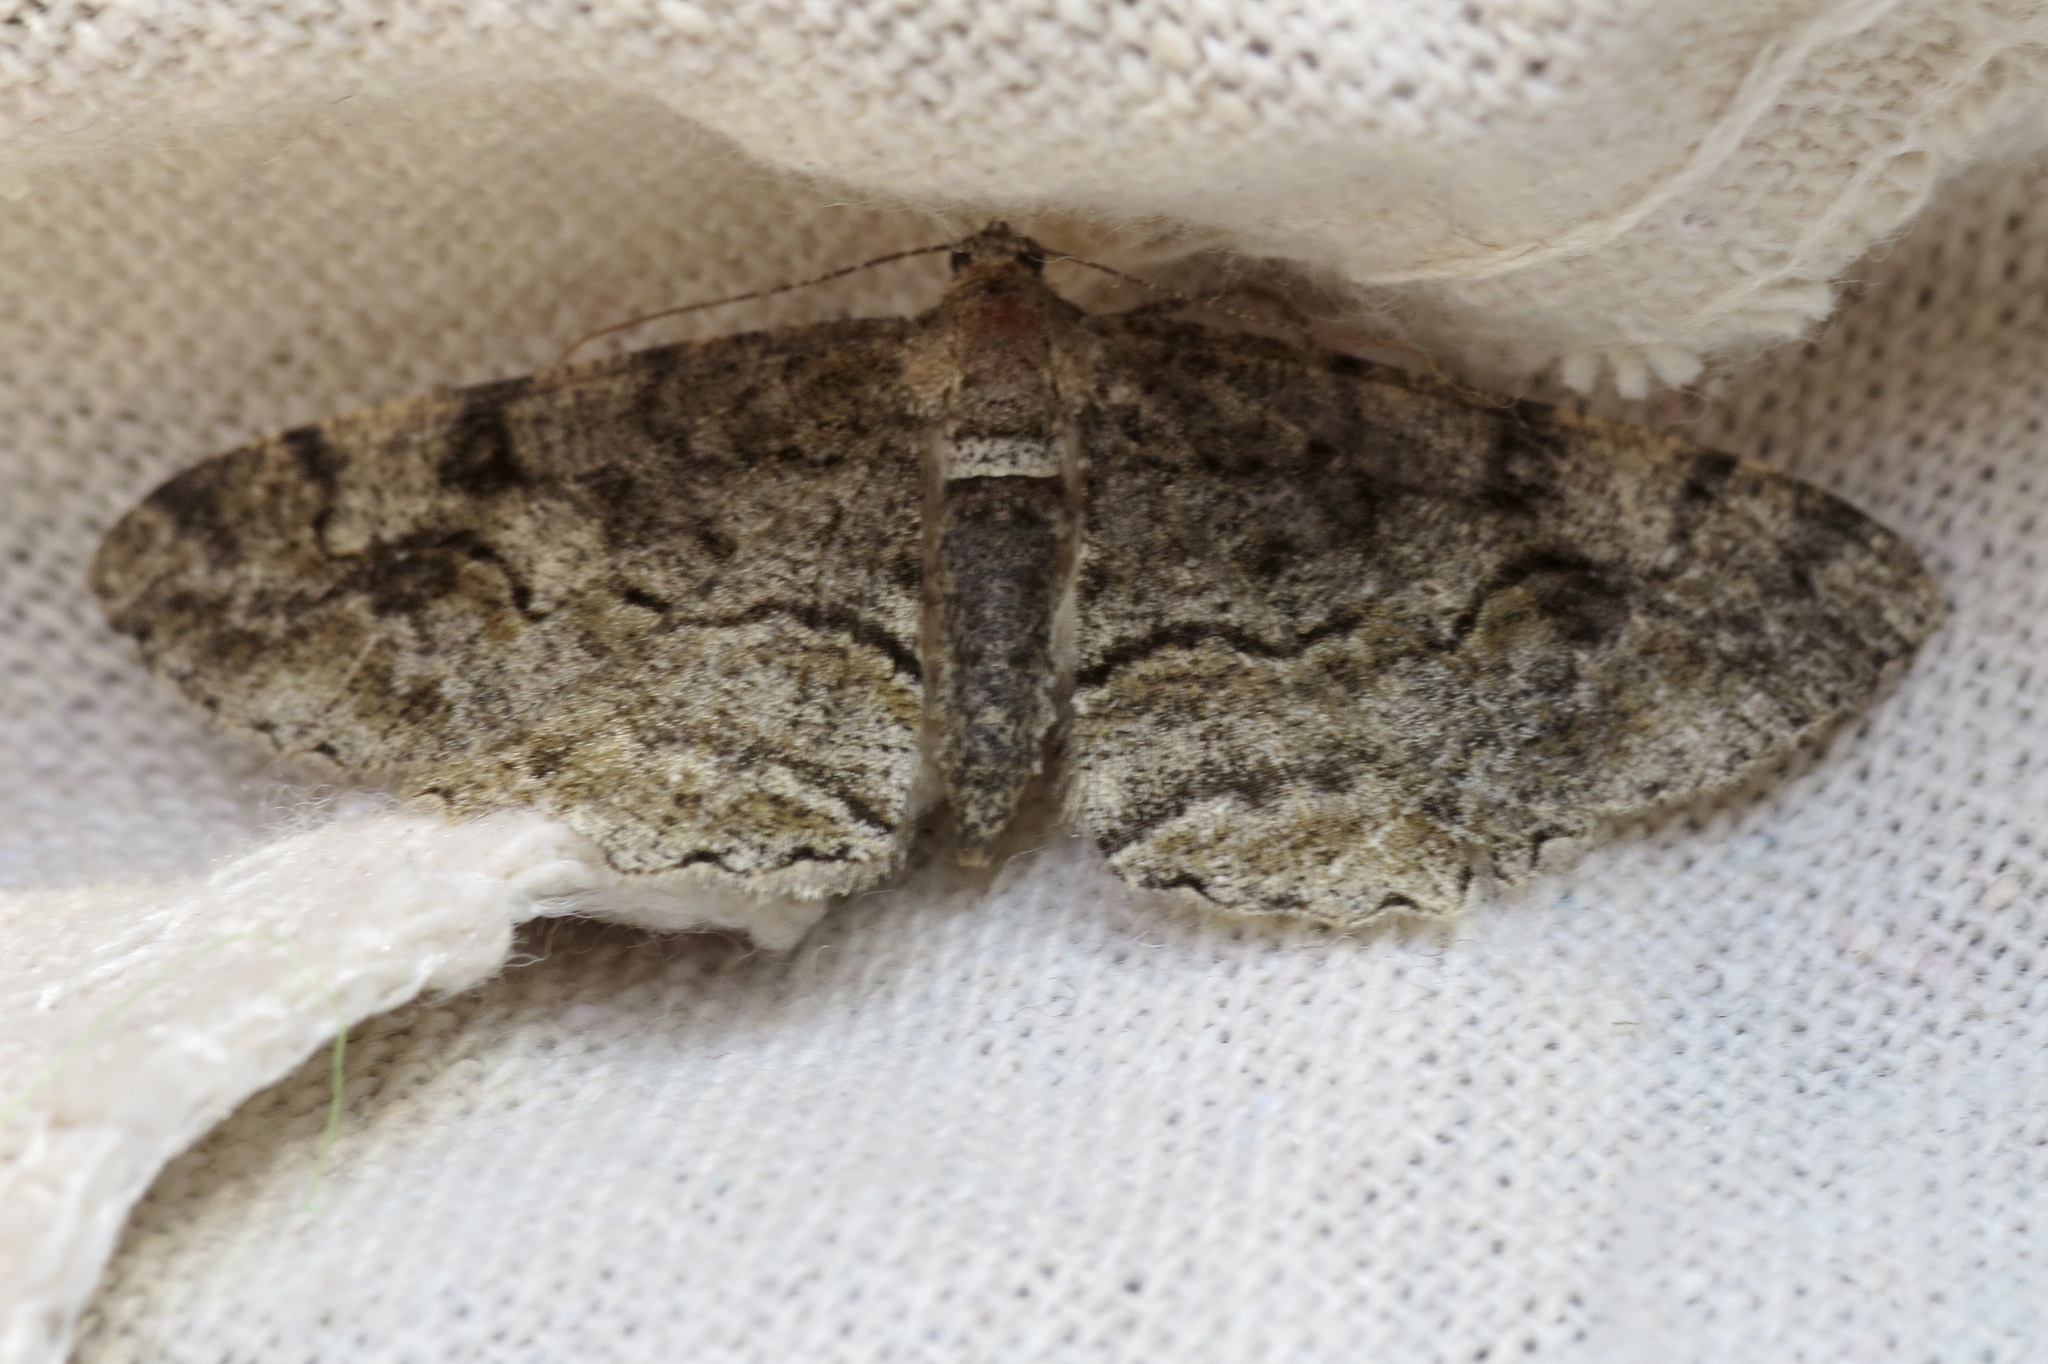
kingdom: Animalia
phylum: Arthropoda
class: Insecta
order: Lepidoptera
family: Geometridae
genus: Alcis
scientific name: Alcis repandata
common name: Mottled beauty
